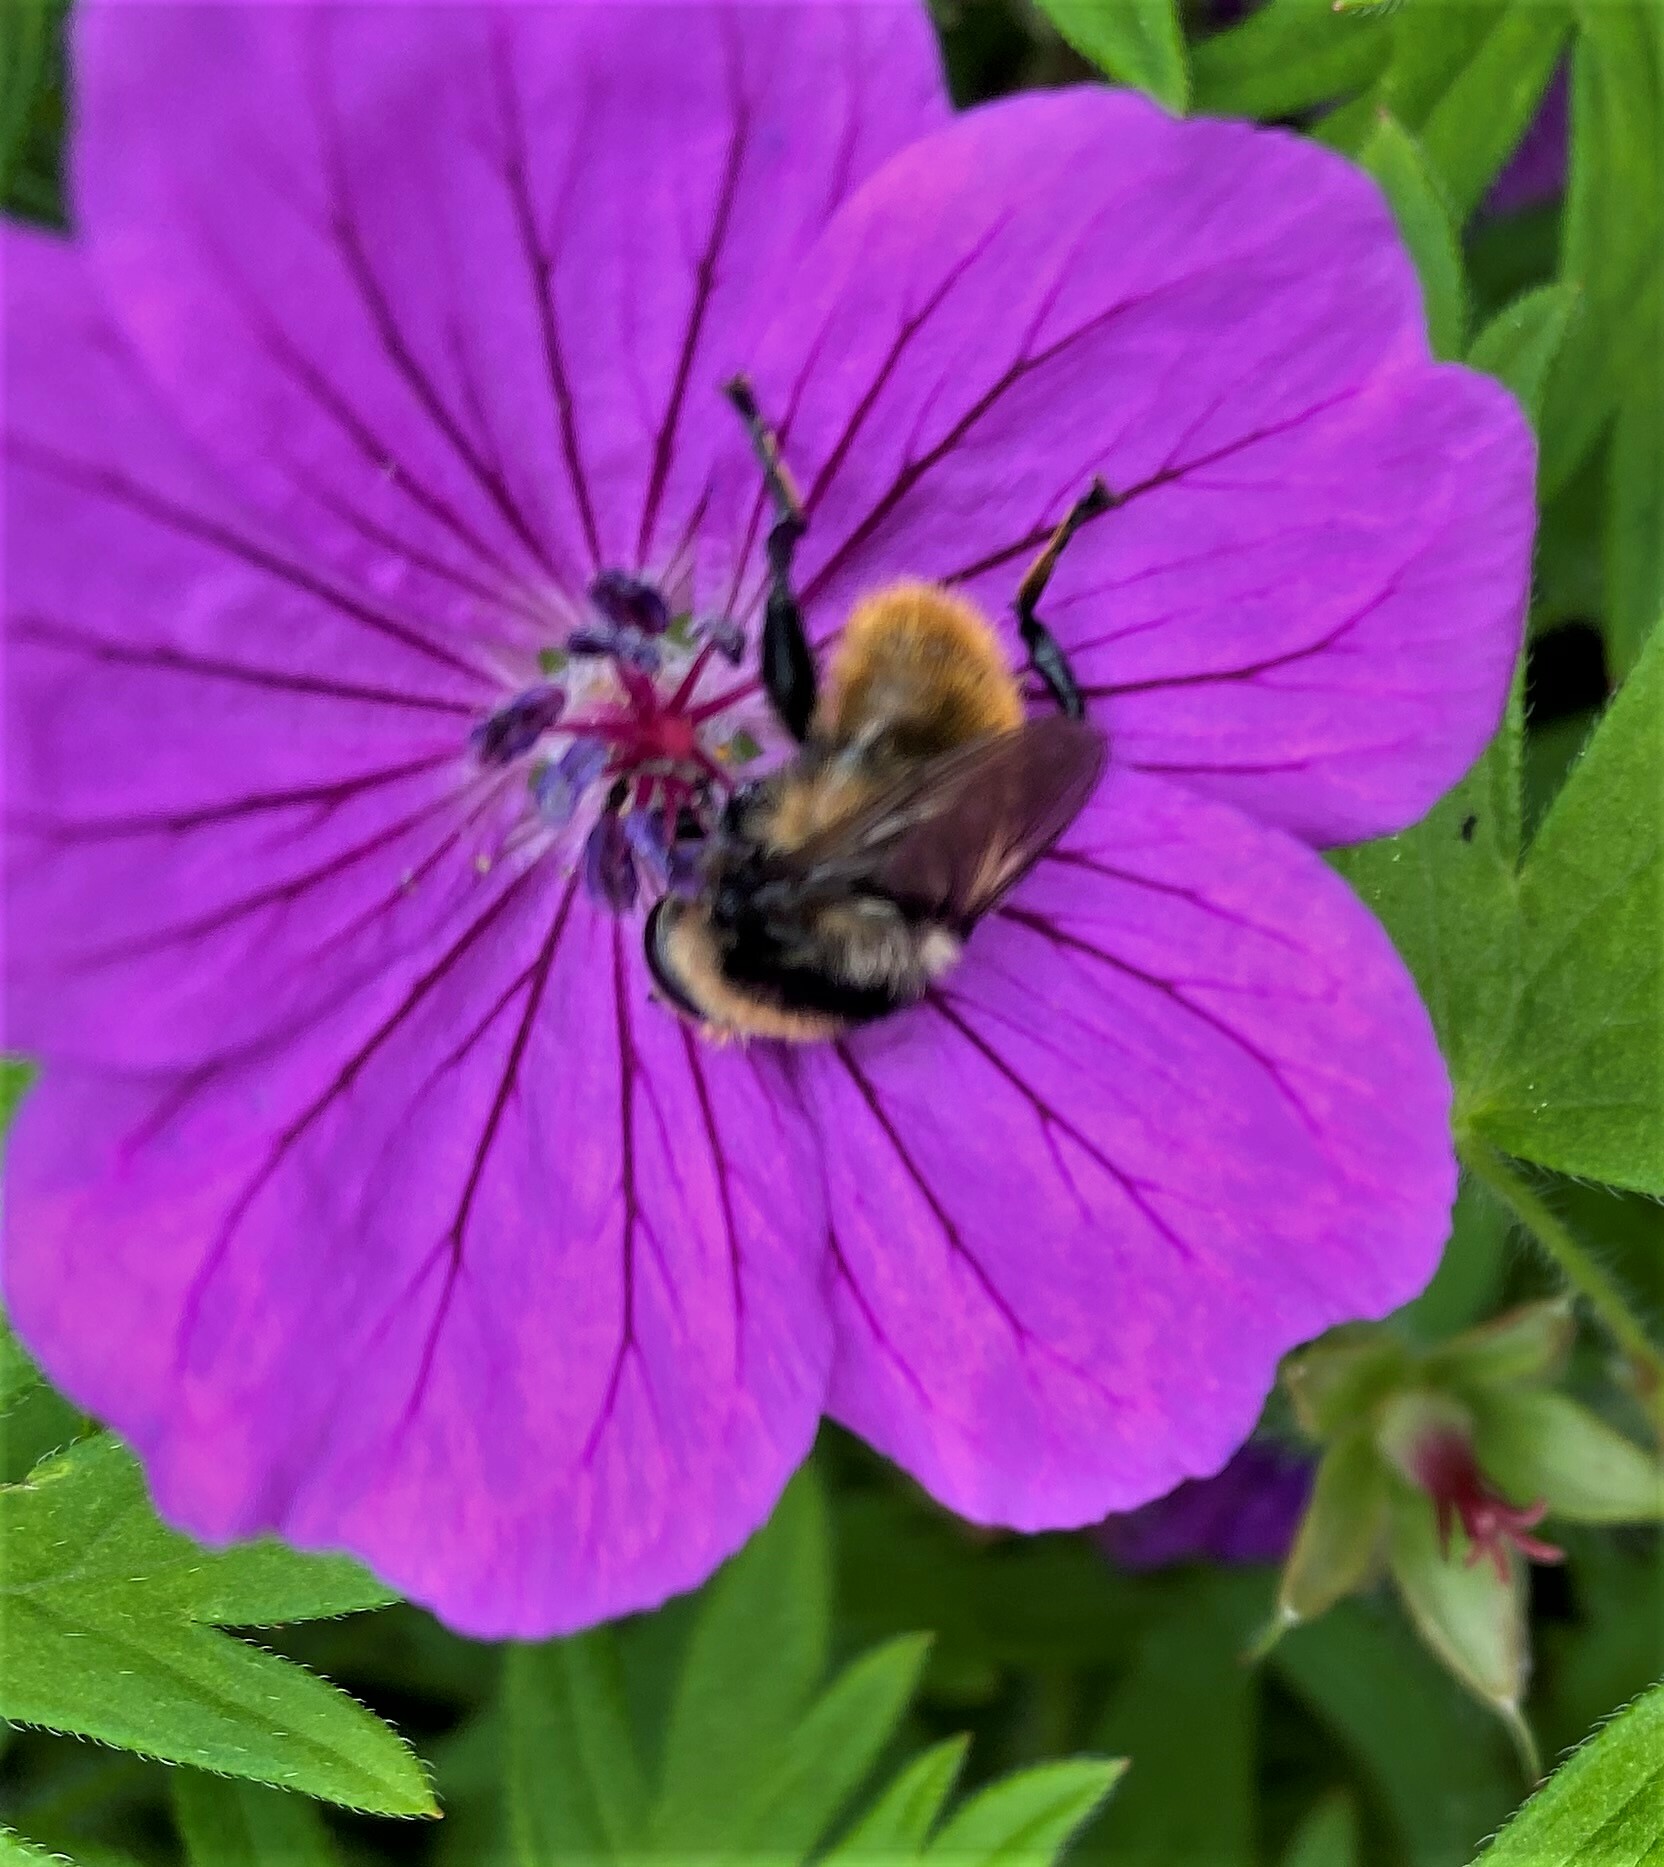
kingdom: Animalia
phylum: Arthropoda
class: Insecta
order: Diptera
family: Syrphidae
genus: Merodon
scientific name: Merodon equestris
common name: Greater bulb-fly
